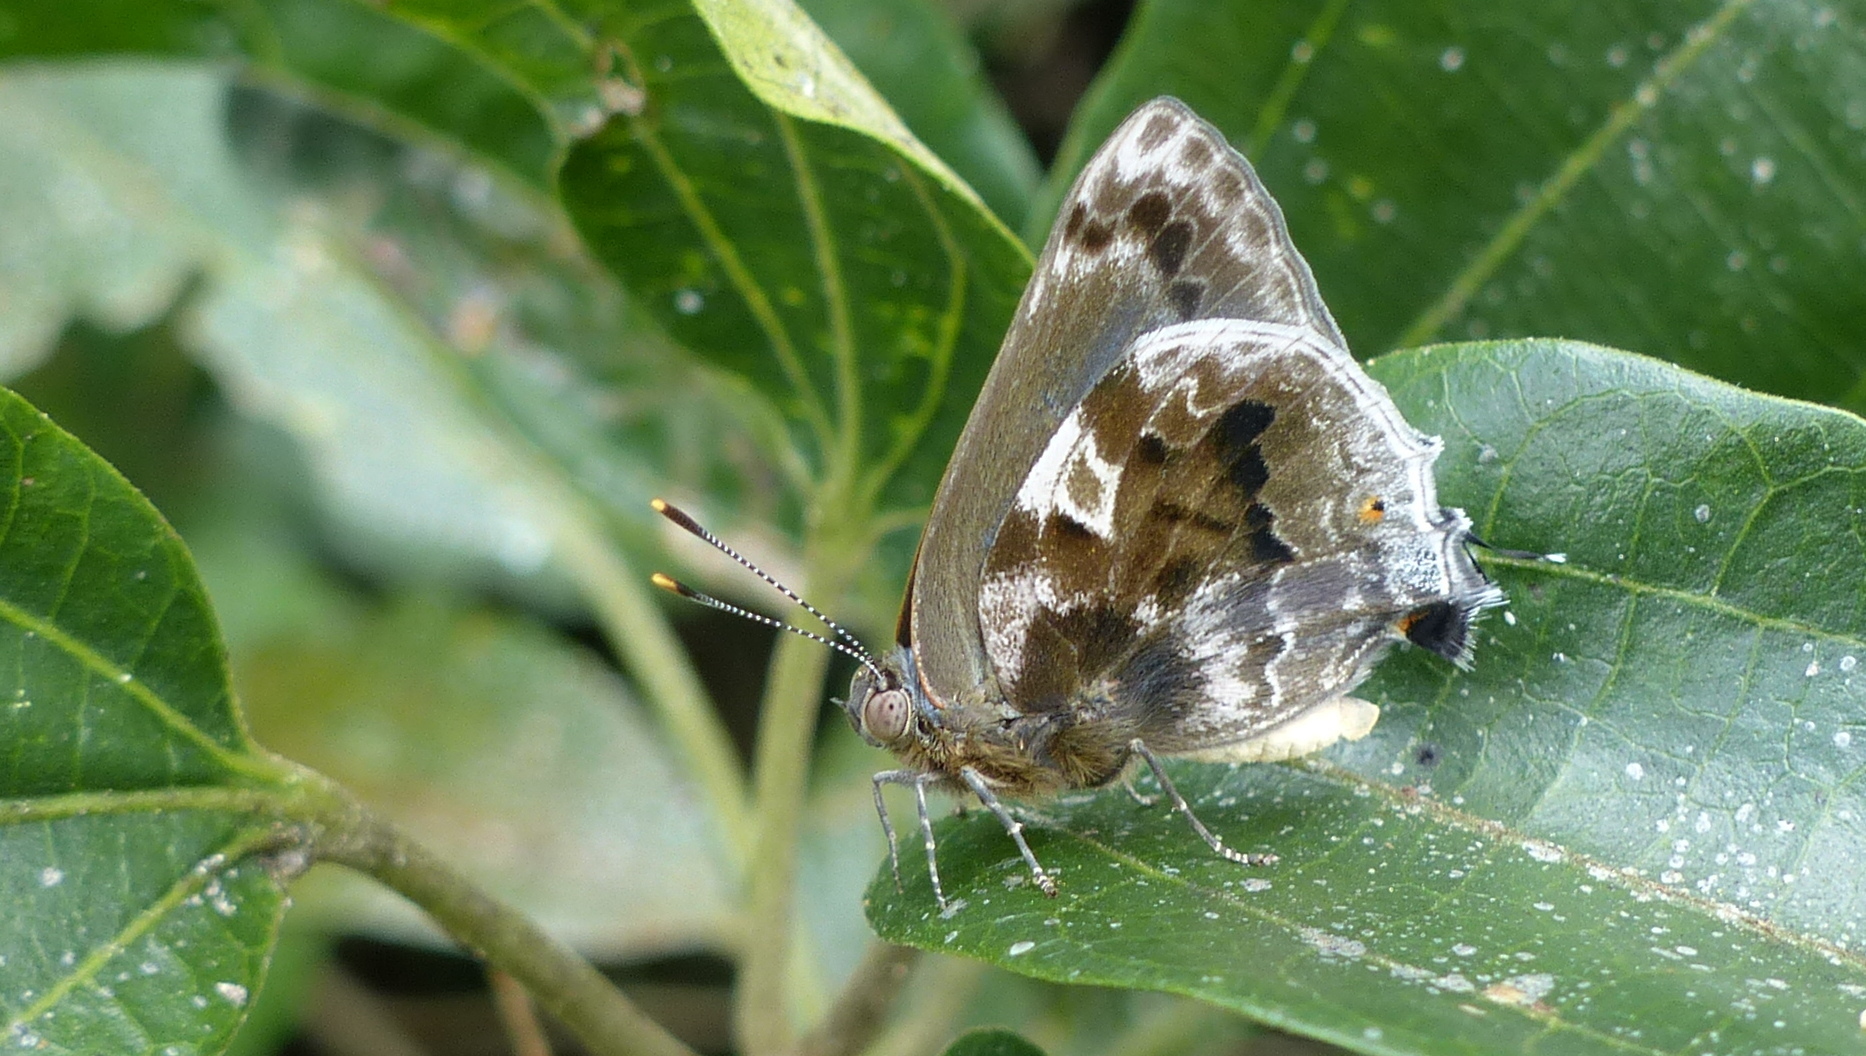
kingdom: Animalia
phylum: Arthropoda
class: Insecta
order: Lepidoptera
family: Lycaenidae
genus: Michaelus
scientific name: Michaelus jebus
